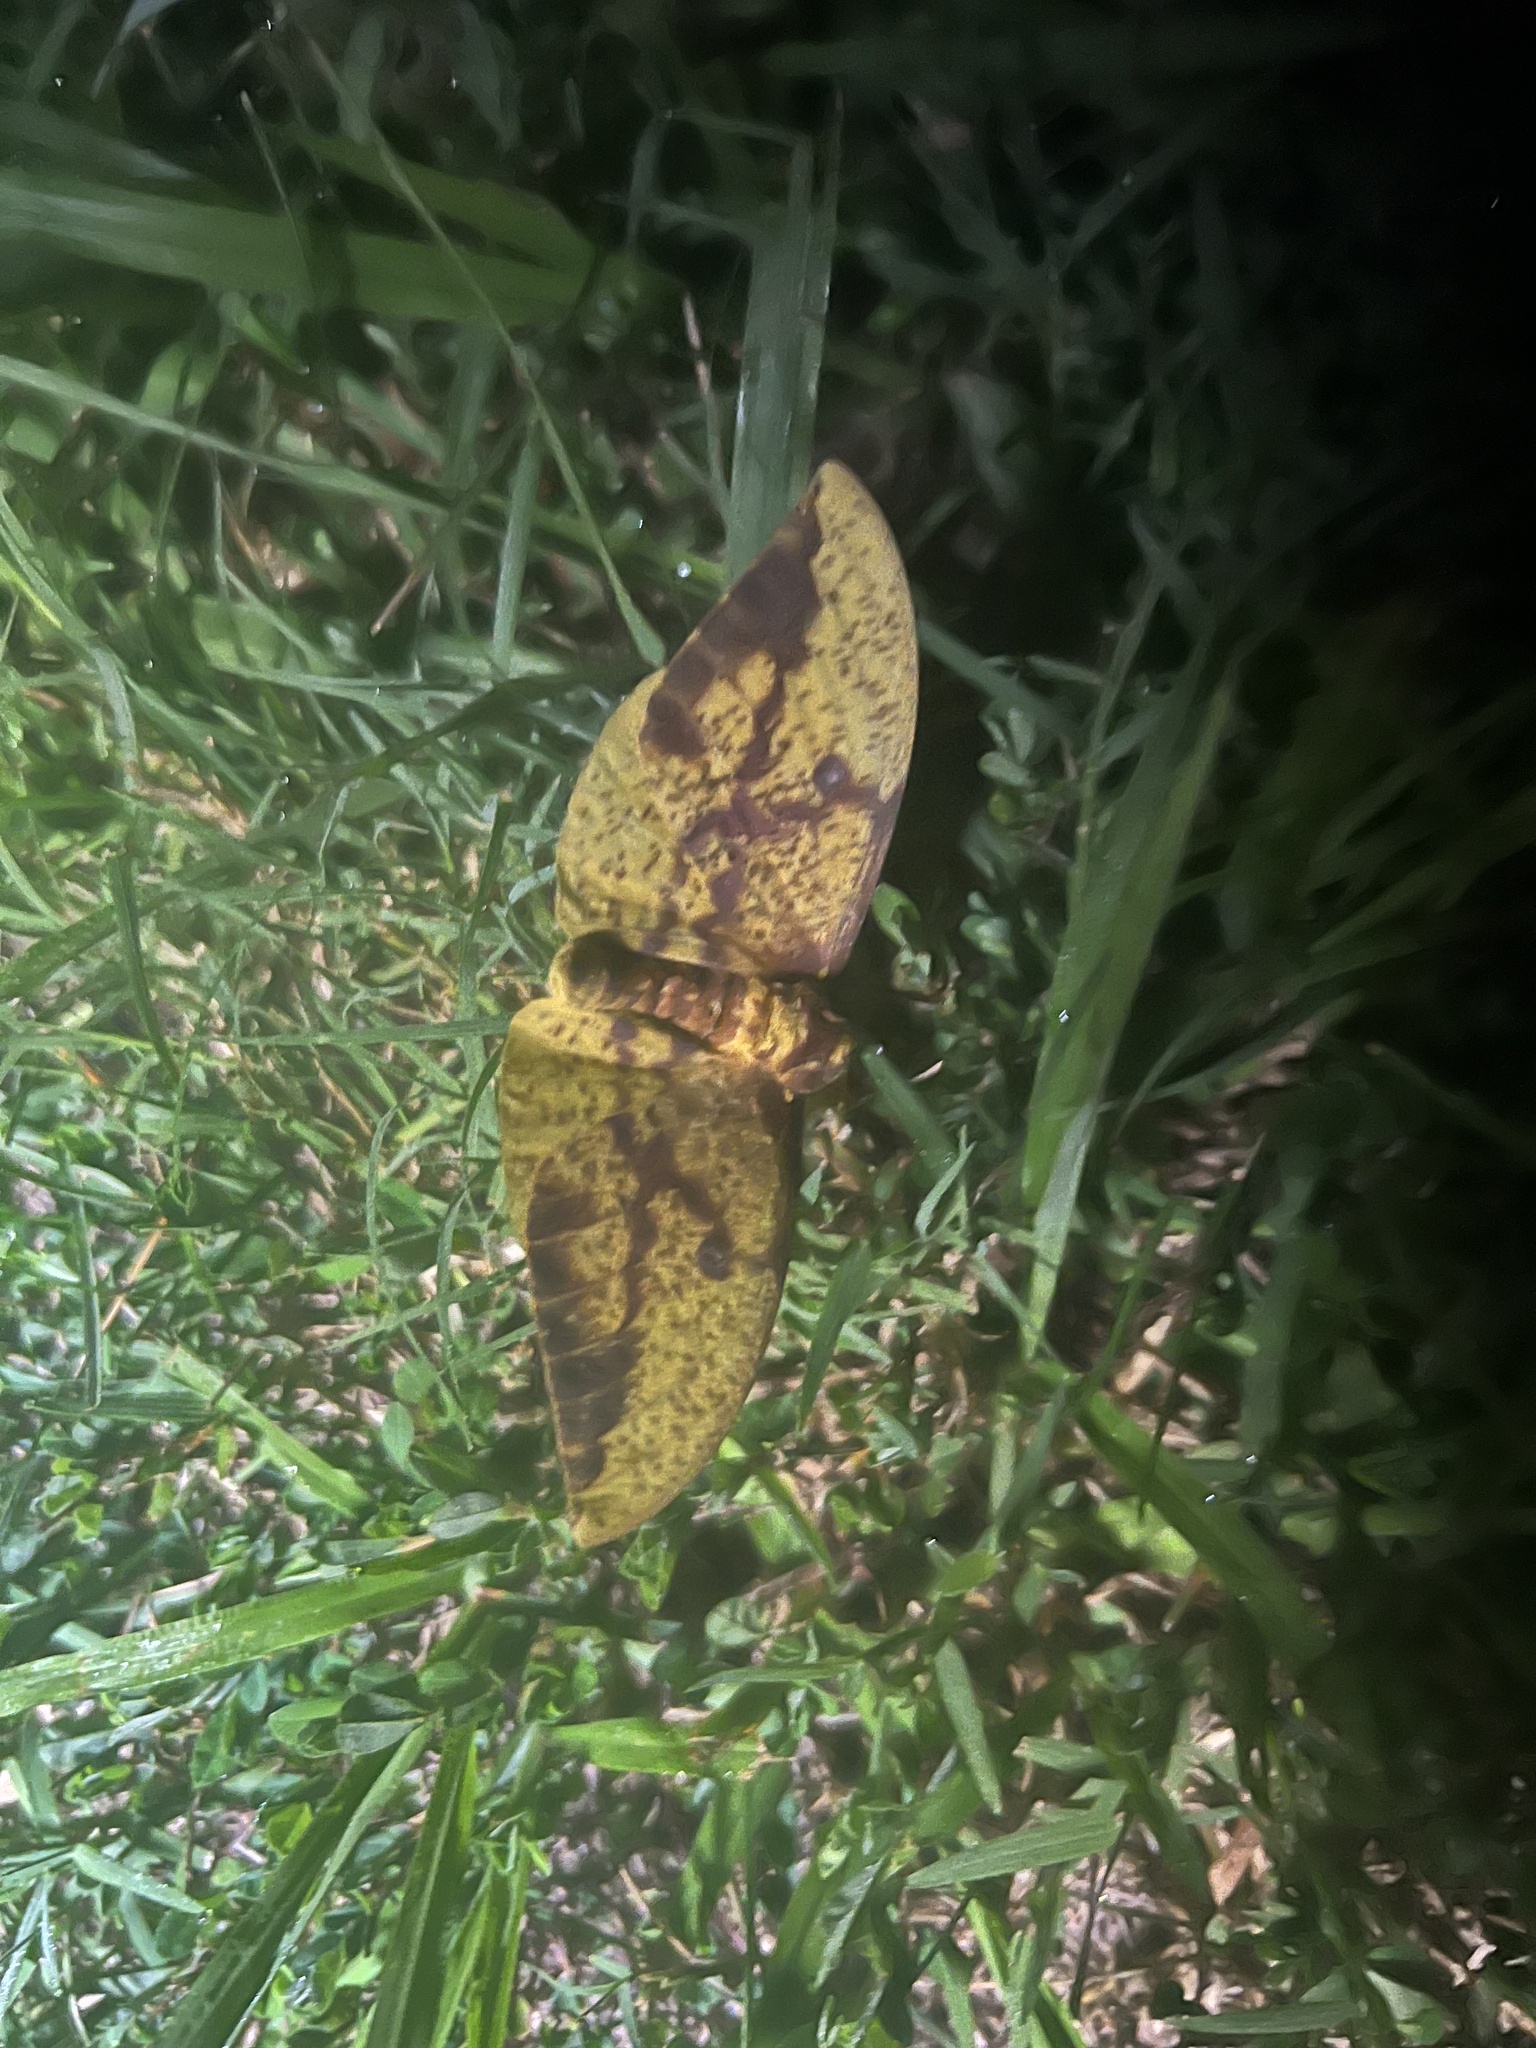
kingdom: Animalia
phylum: Arthropoda
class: Insecta
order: Lepidoptera
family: Saturniidae
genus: Eacles
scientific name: Eacles imperialis
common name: Imperial moth
